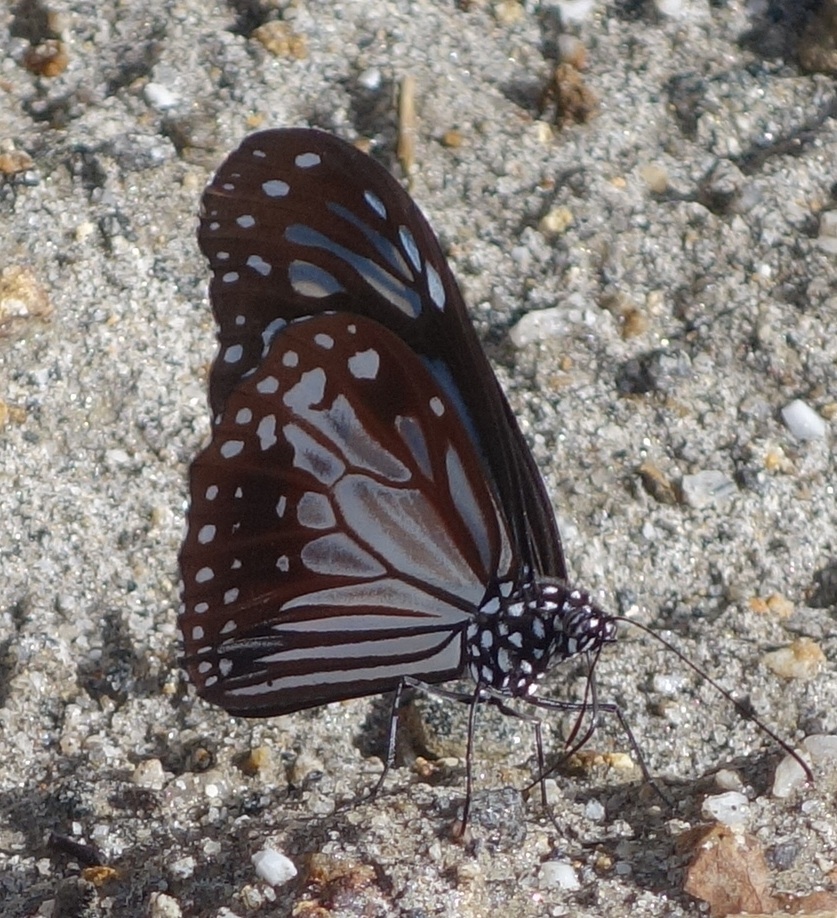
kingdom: Animalia
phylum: Arthropoda
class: Insecta
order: Lepidoptera
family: Nymphalidae
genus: Parantica
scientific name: Parantica melaneus
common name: Chocolate tiger
